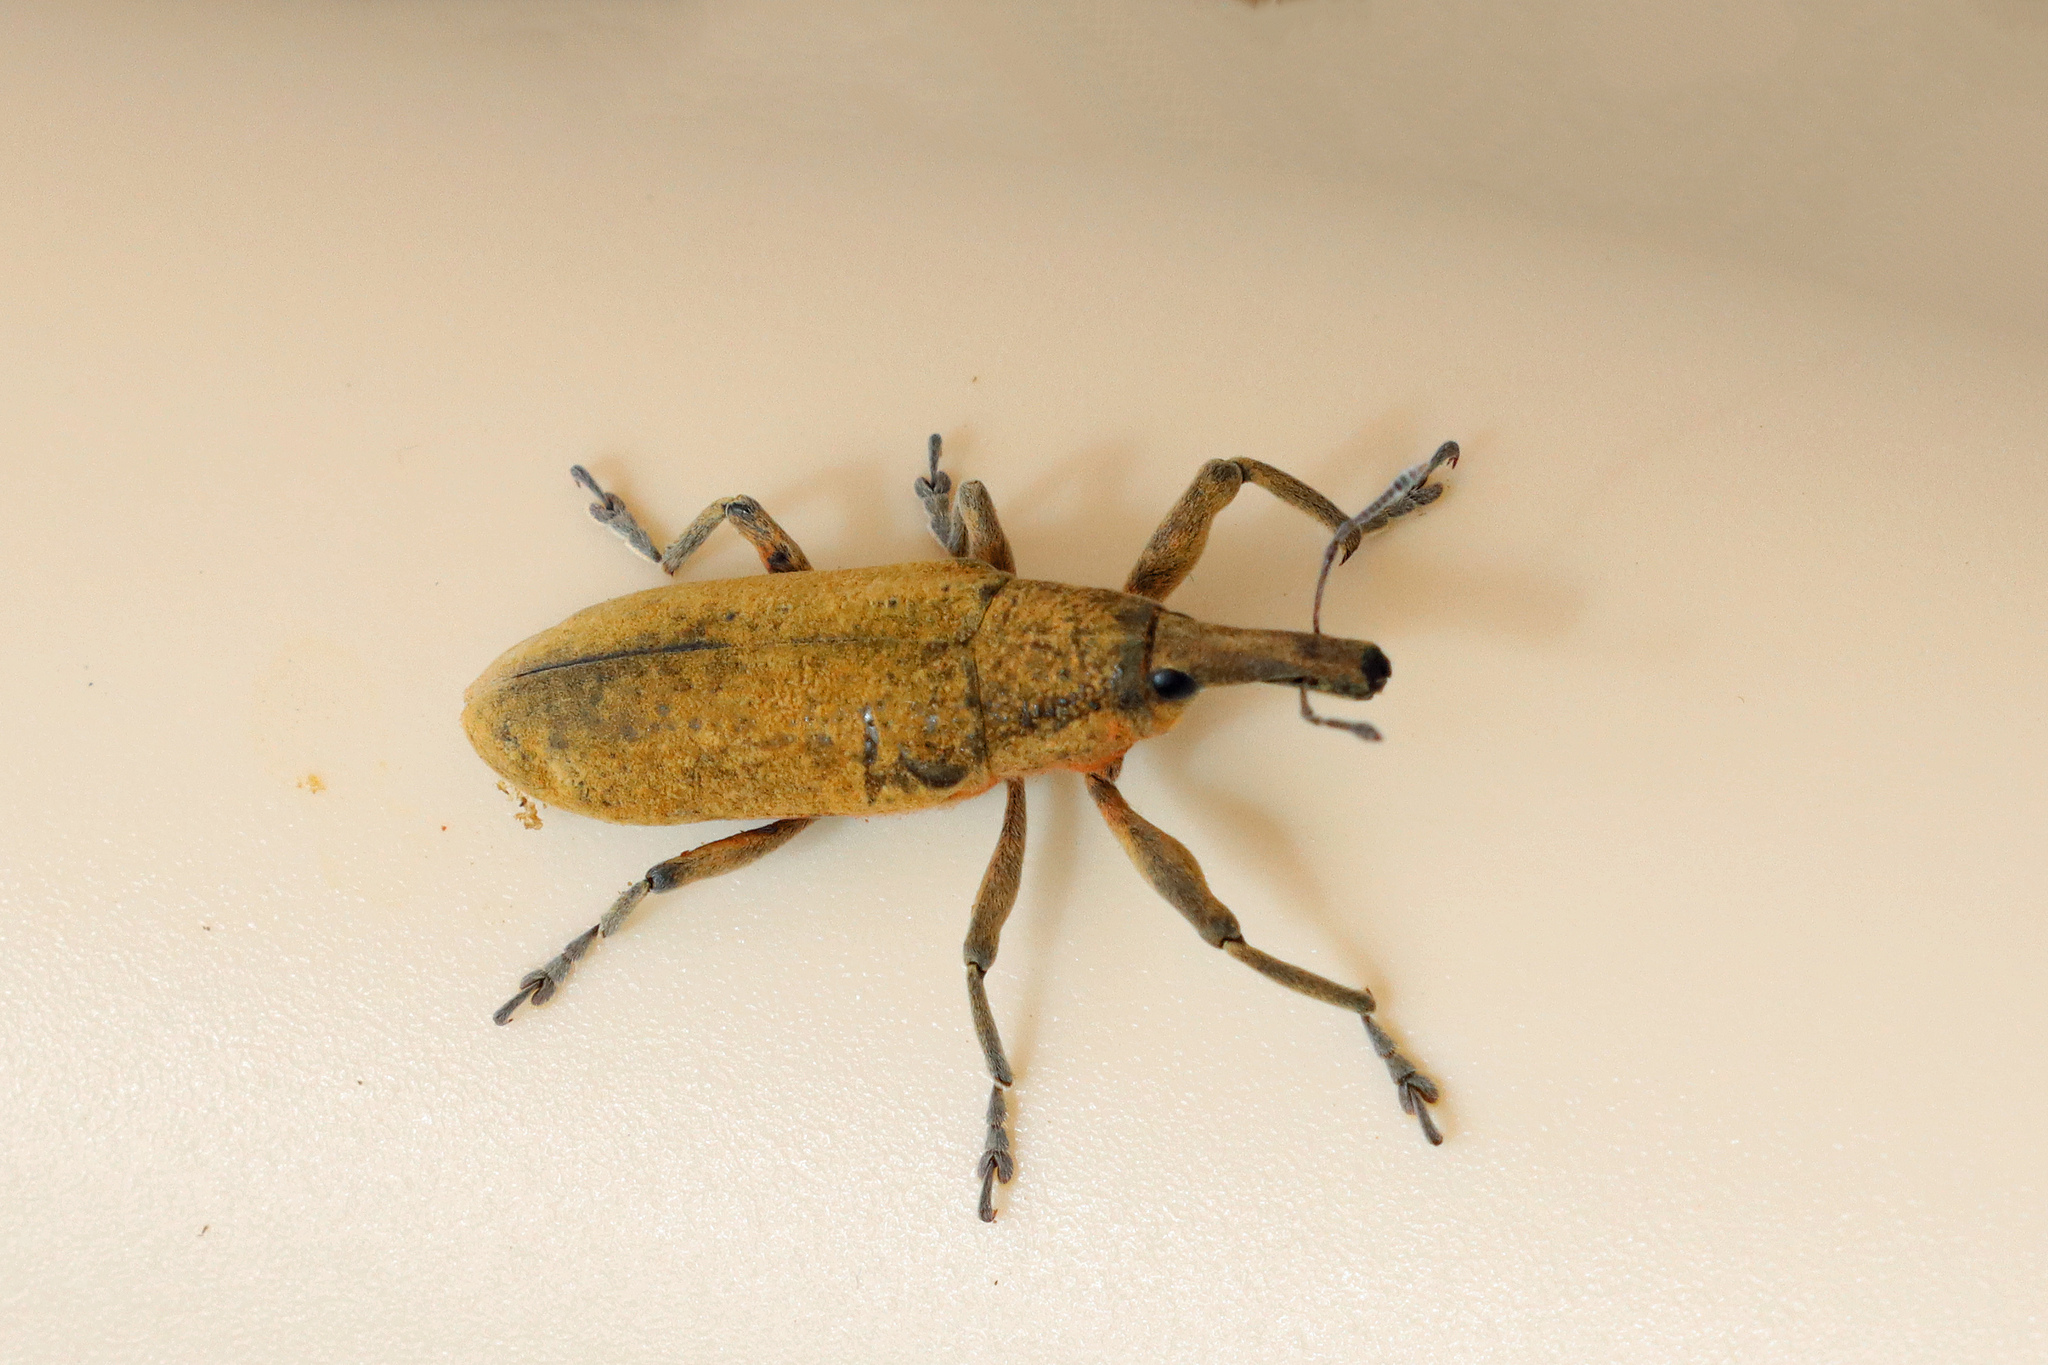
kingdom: Animalia
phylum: Arthropoda
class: Insecta
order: Coleoptera
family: Curculionidae
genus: Lixus
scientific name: Lixus pulverulentus
